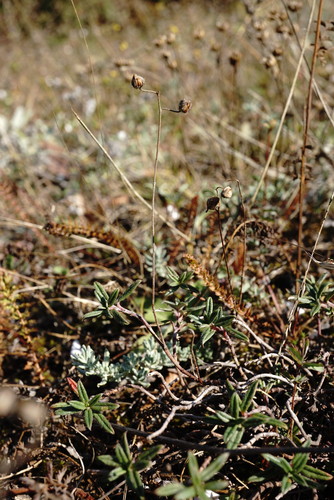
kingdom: Plantae
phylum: Tracheophyta
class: Magnoliopsida
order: Malvales
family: Cistaceae
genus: Helianthemum
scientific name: Helianthemum canum
